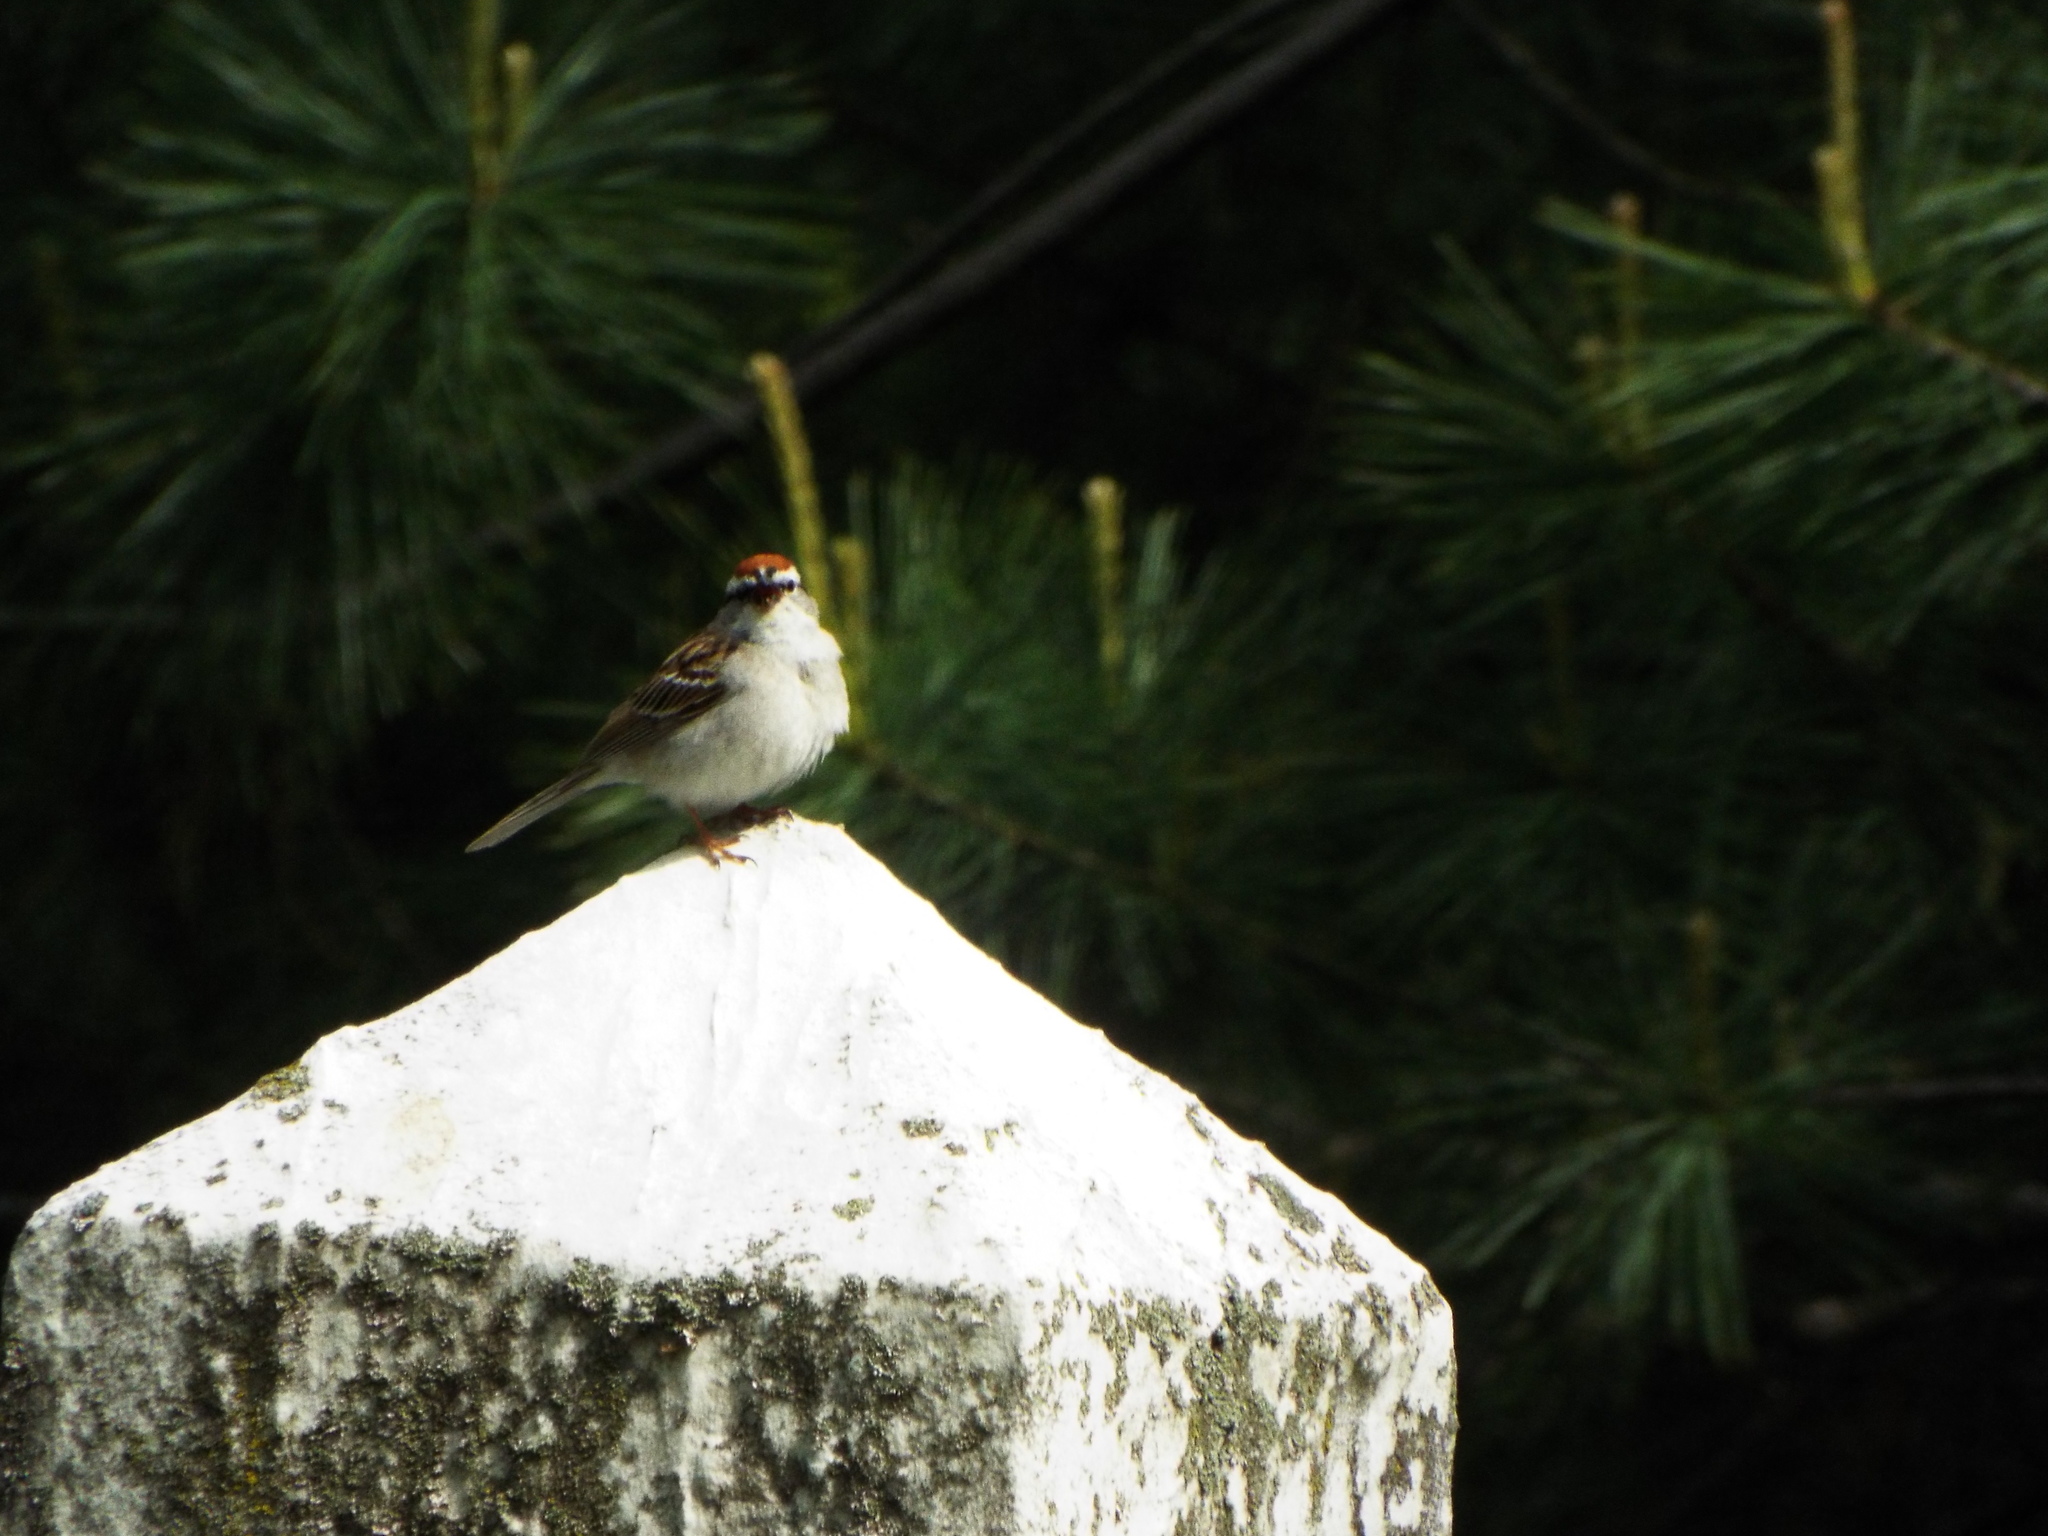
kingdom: Animalia
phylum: Chordata
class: Aves
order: Passeriformes
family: Passerellidae
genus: Spizella
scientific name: Spizella passerina
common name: Chipping sparrow
